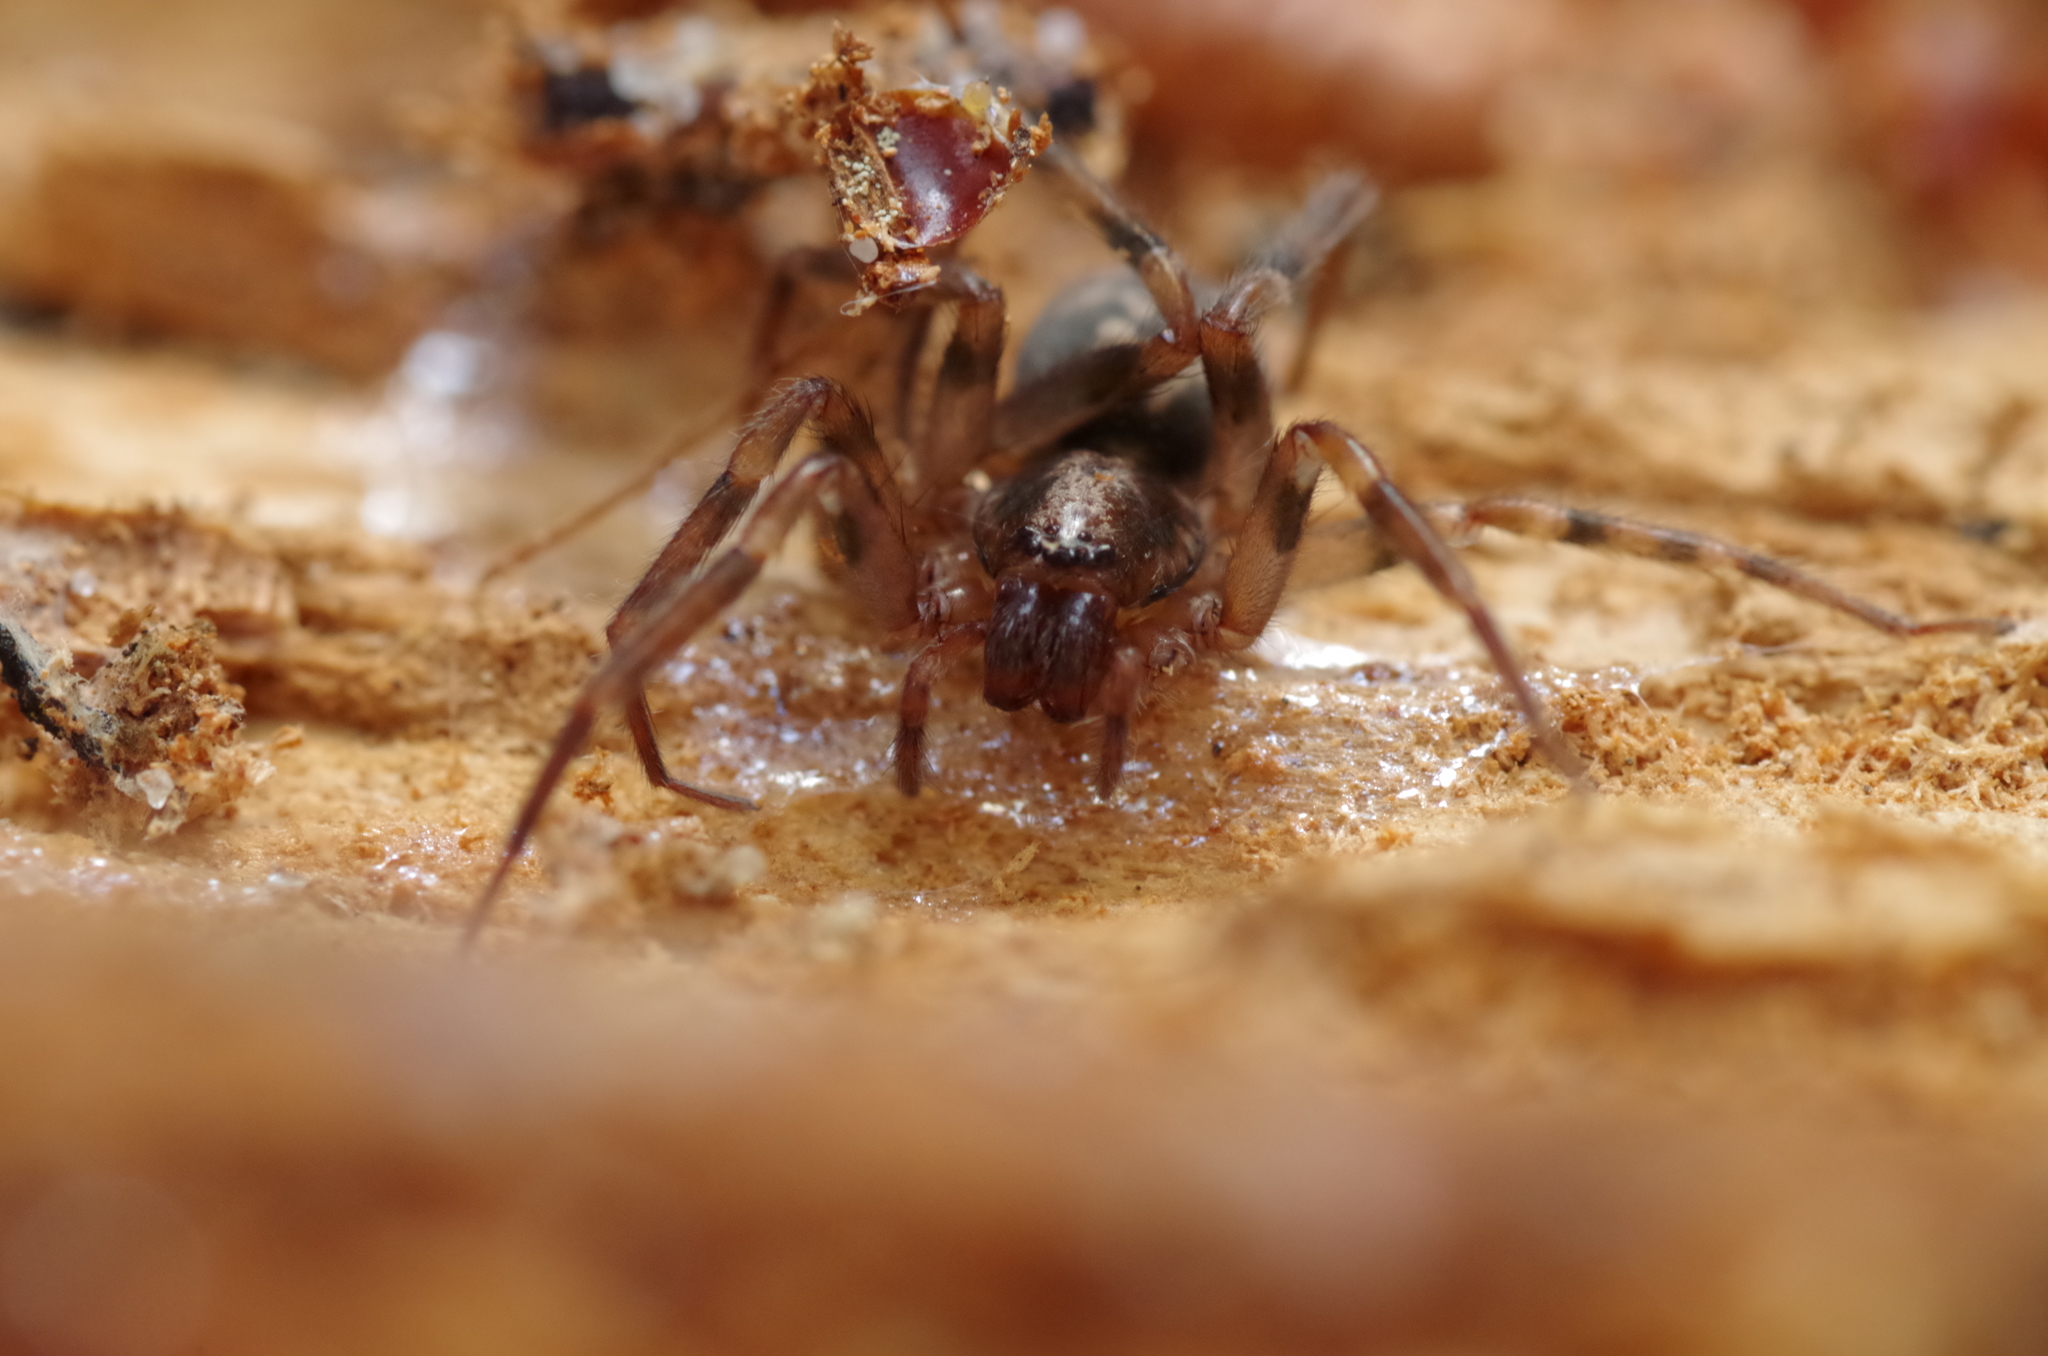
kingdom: Animalia
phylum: Arthropoda
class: Arachnida
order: Araneae
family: Liocranidae
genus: Liocranum
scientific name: Liocranum rupicola
